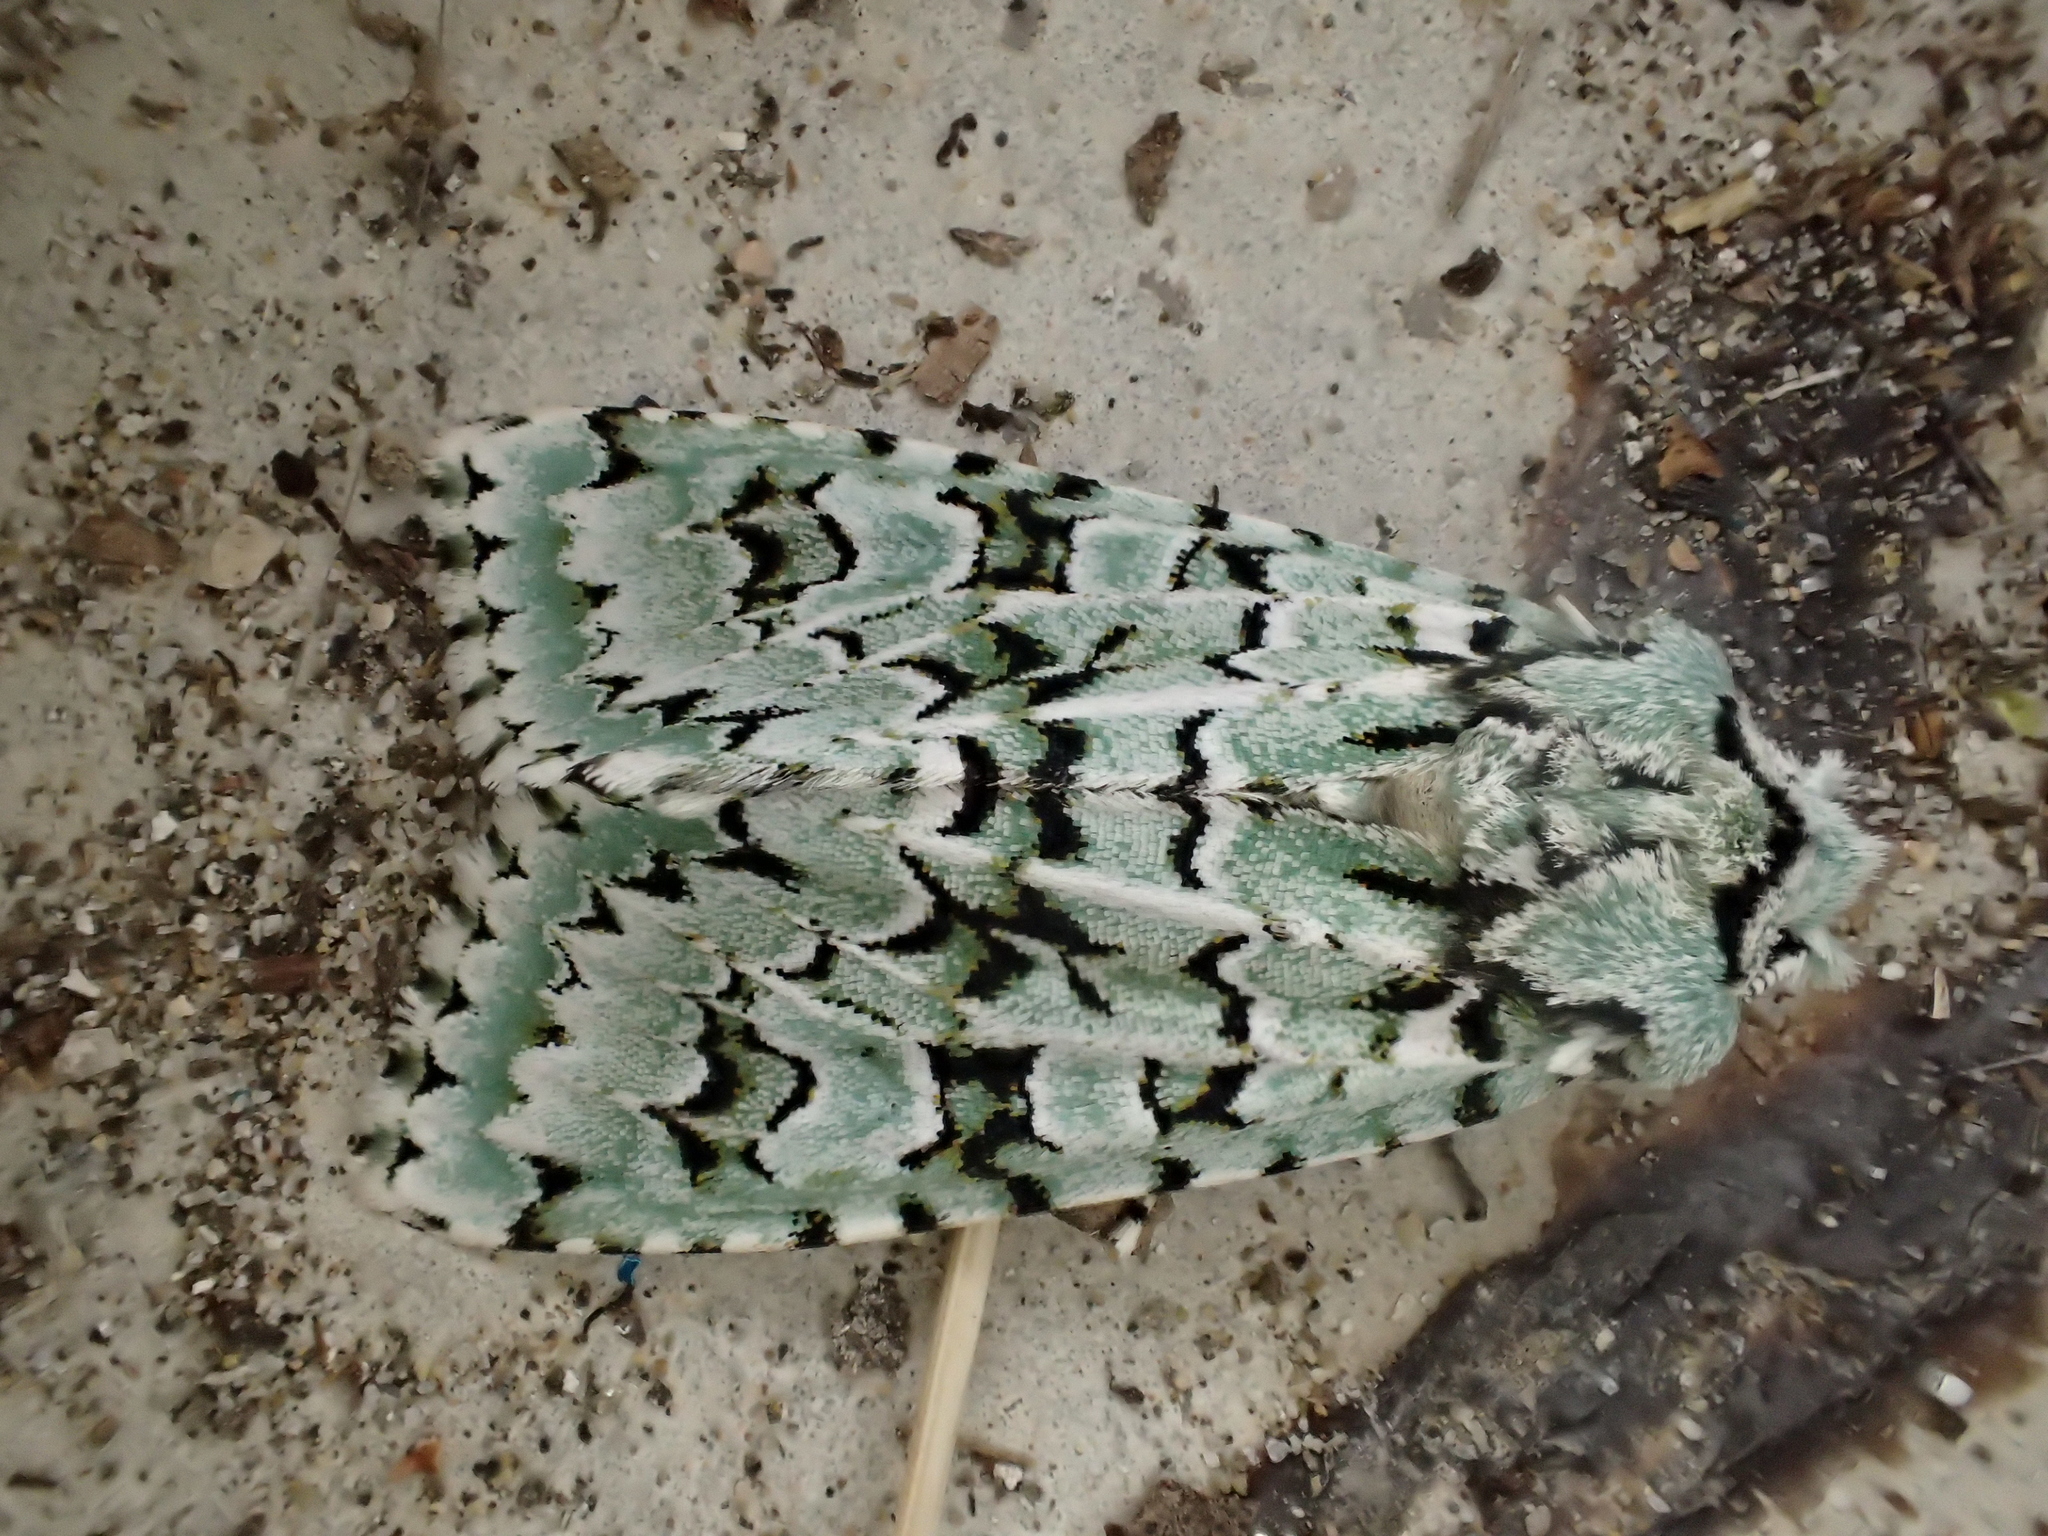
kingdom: Animalia
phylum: Arthropoda
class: Insecta
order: Lepidoptera
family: Noctuidae
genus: Griposia
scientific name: Griposia aprilina
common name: Merveille du jour
